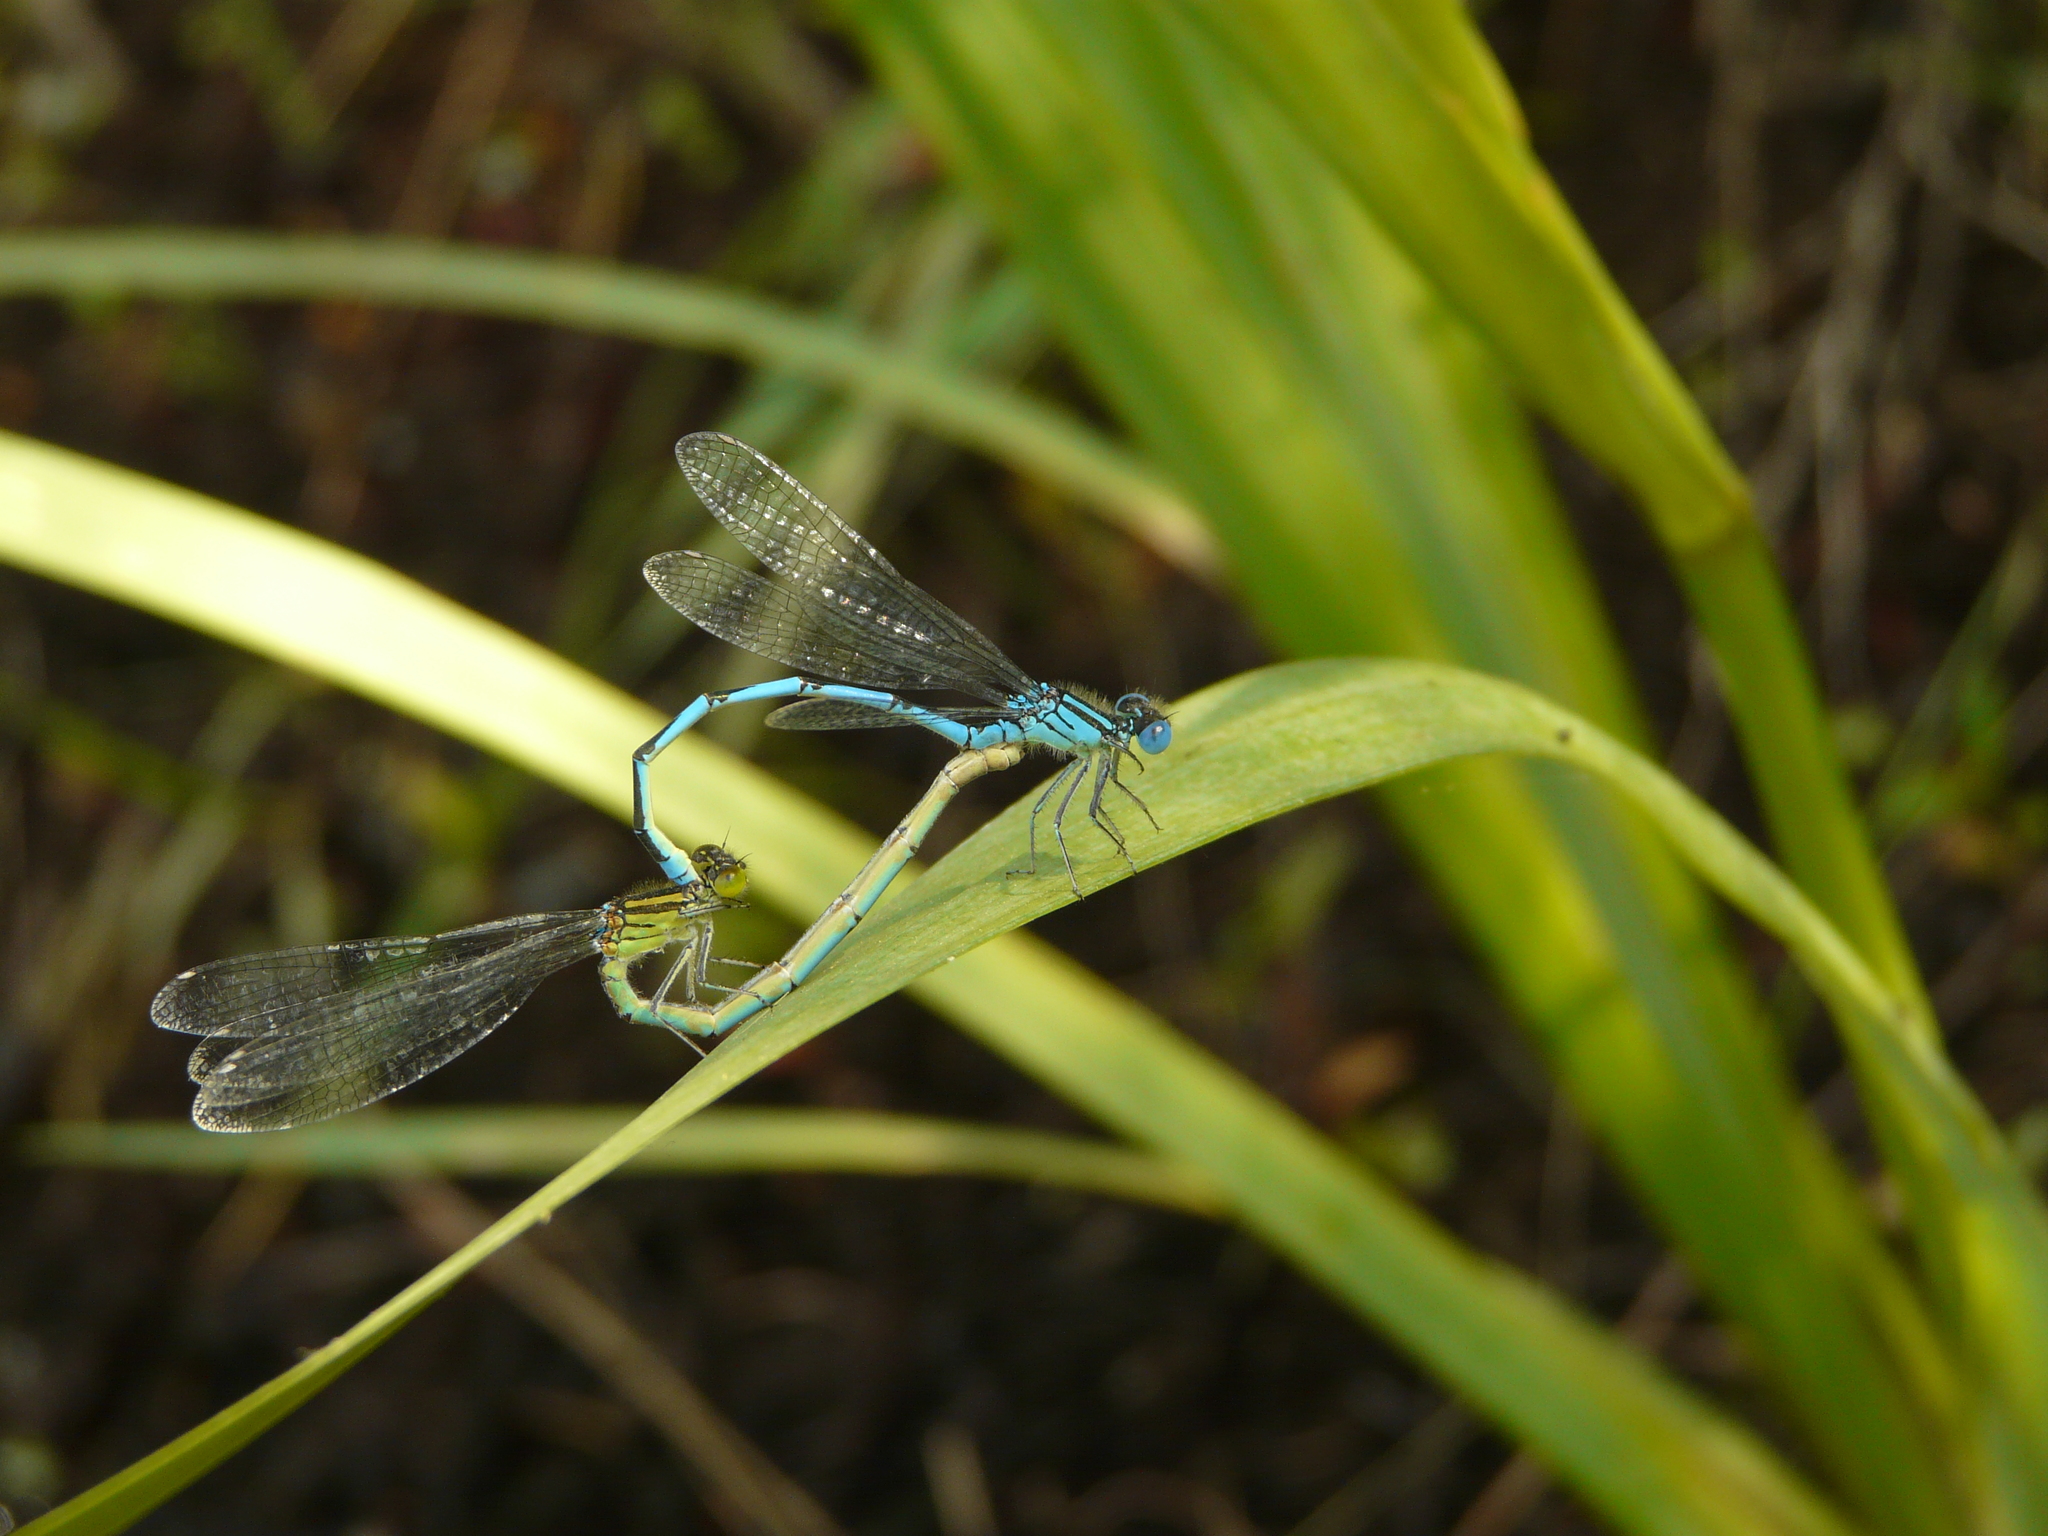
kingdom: Animalia
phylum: Arthropoda
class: Insecta
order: Odonata
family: Coenagrionidae
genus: Erythromma
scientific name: Erythromma lindenii
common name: Blue-eye
